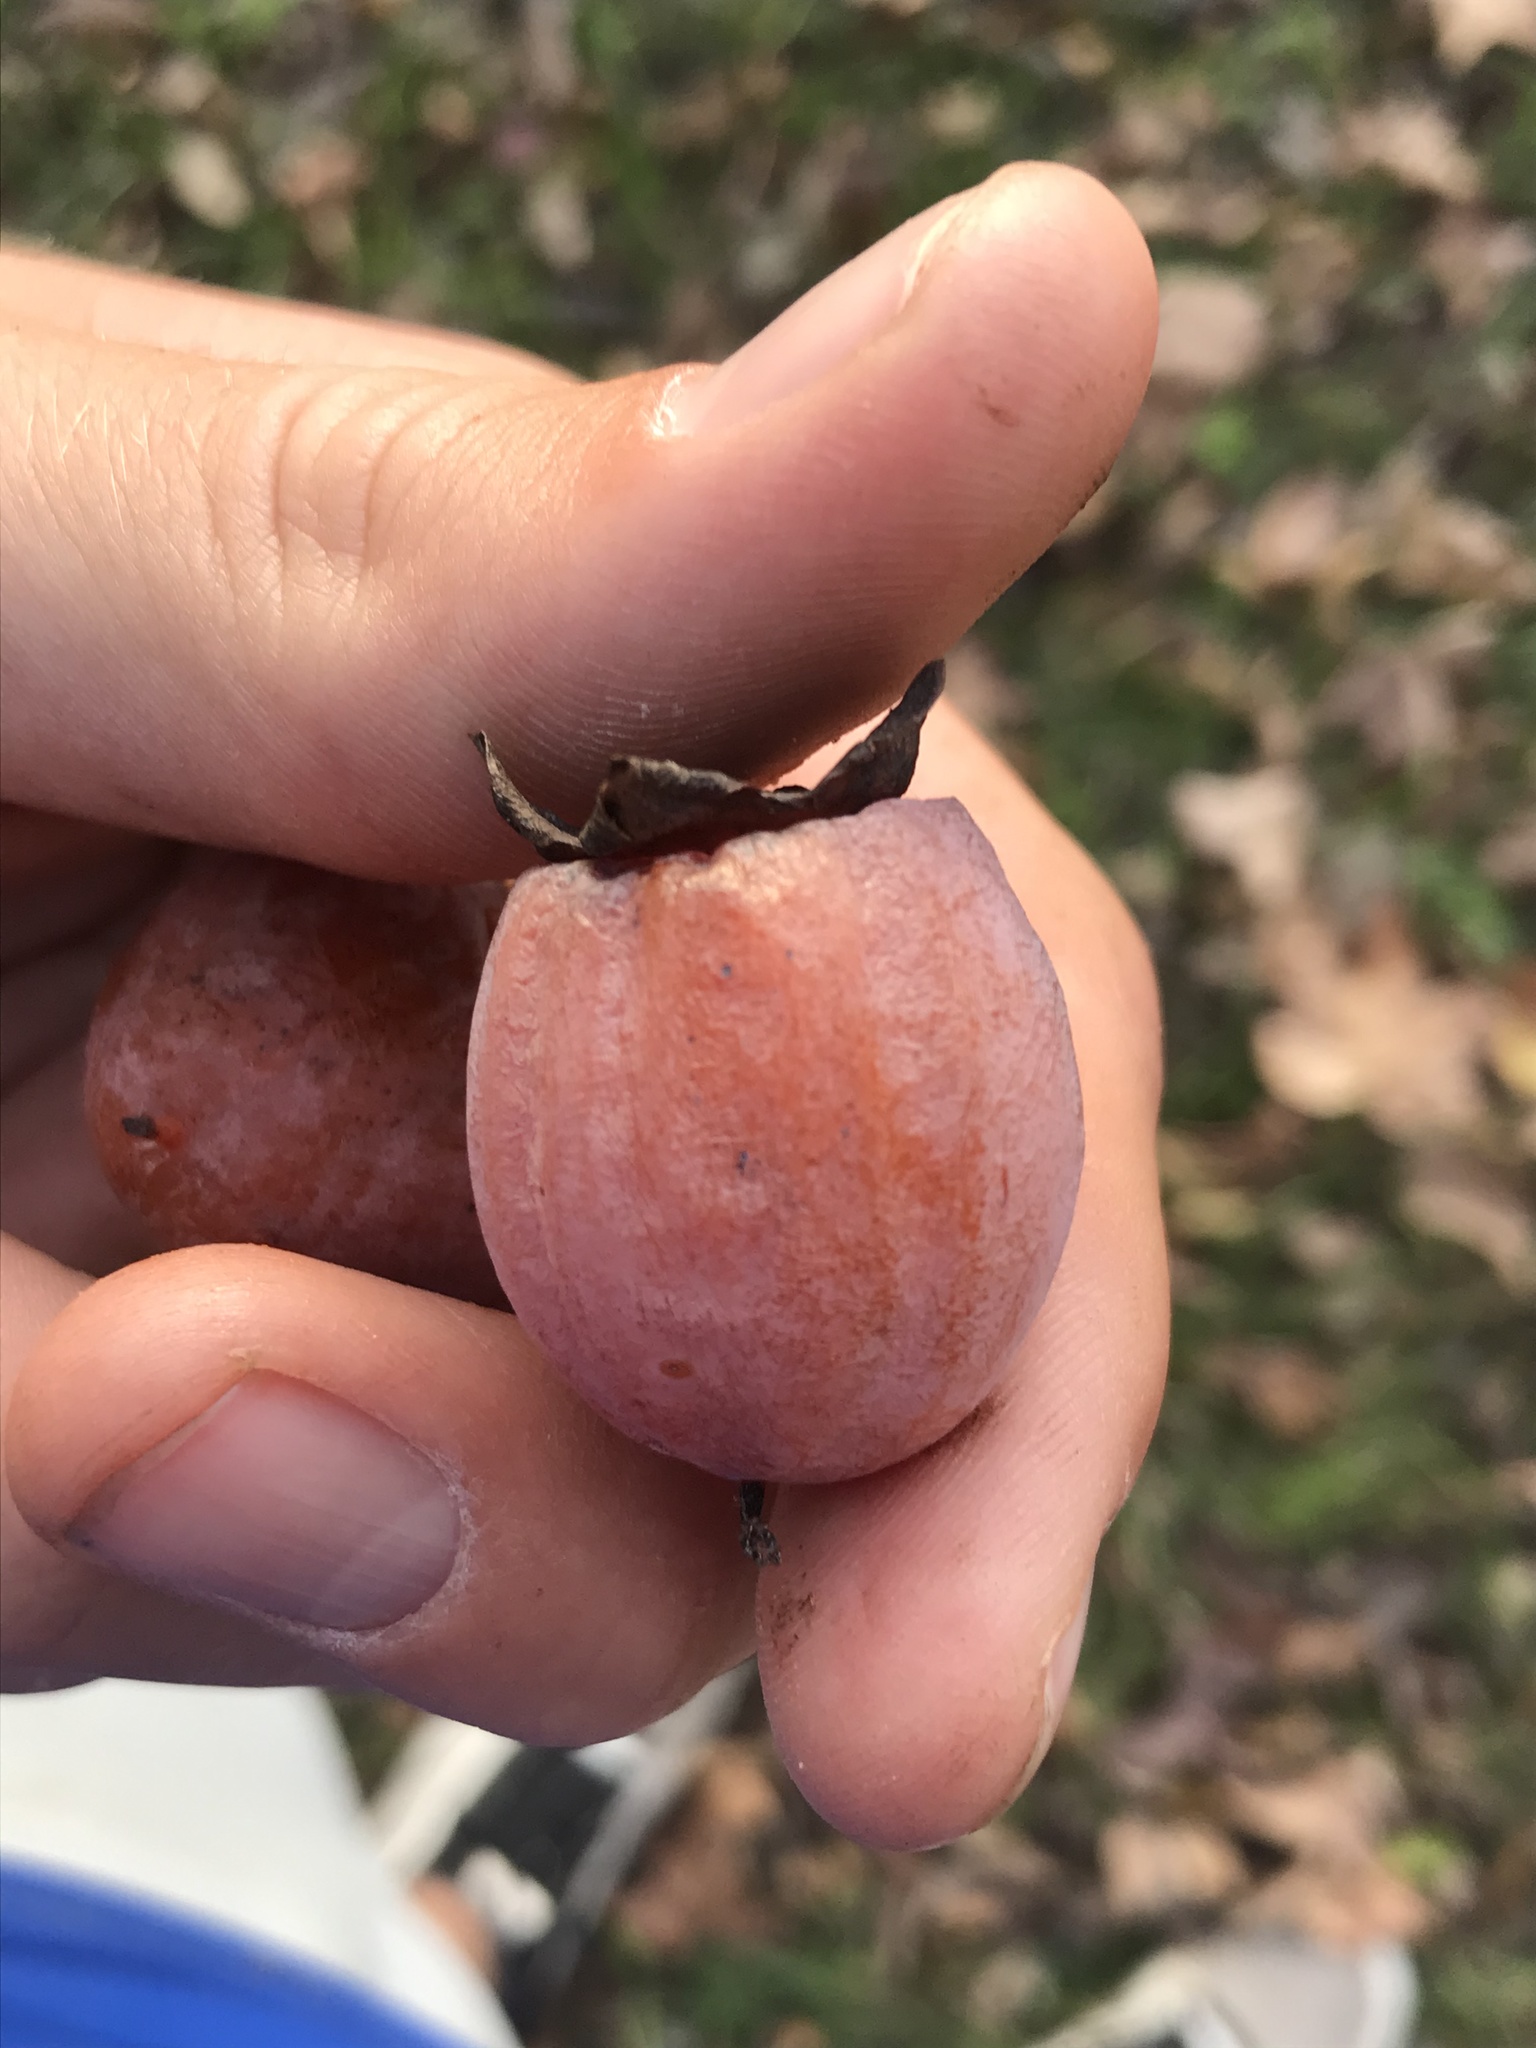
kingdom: Plantae
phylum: Tracheophyta
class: Magnoliopsida
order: Ericales
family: Ebenaceae
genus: Diospyros
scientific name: Diospyros virginiana
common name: Persimmon
